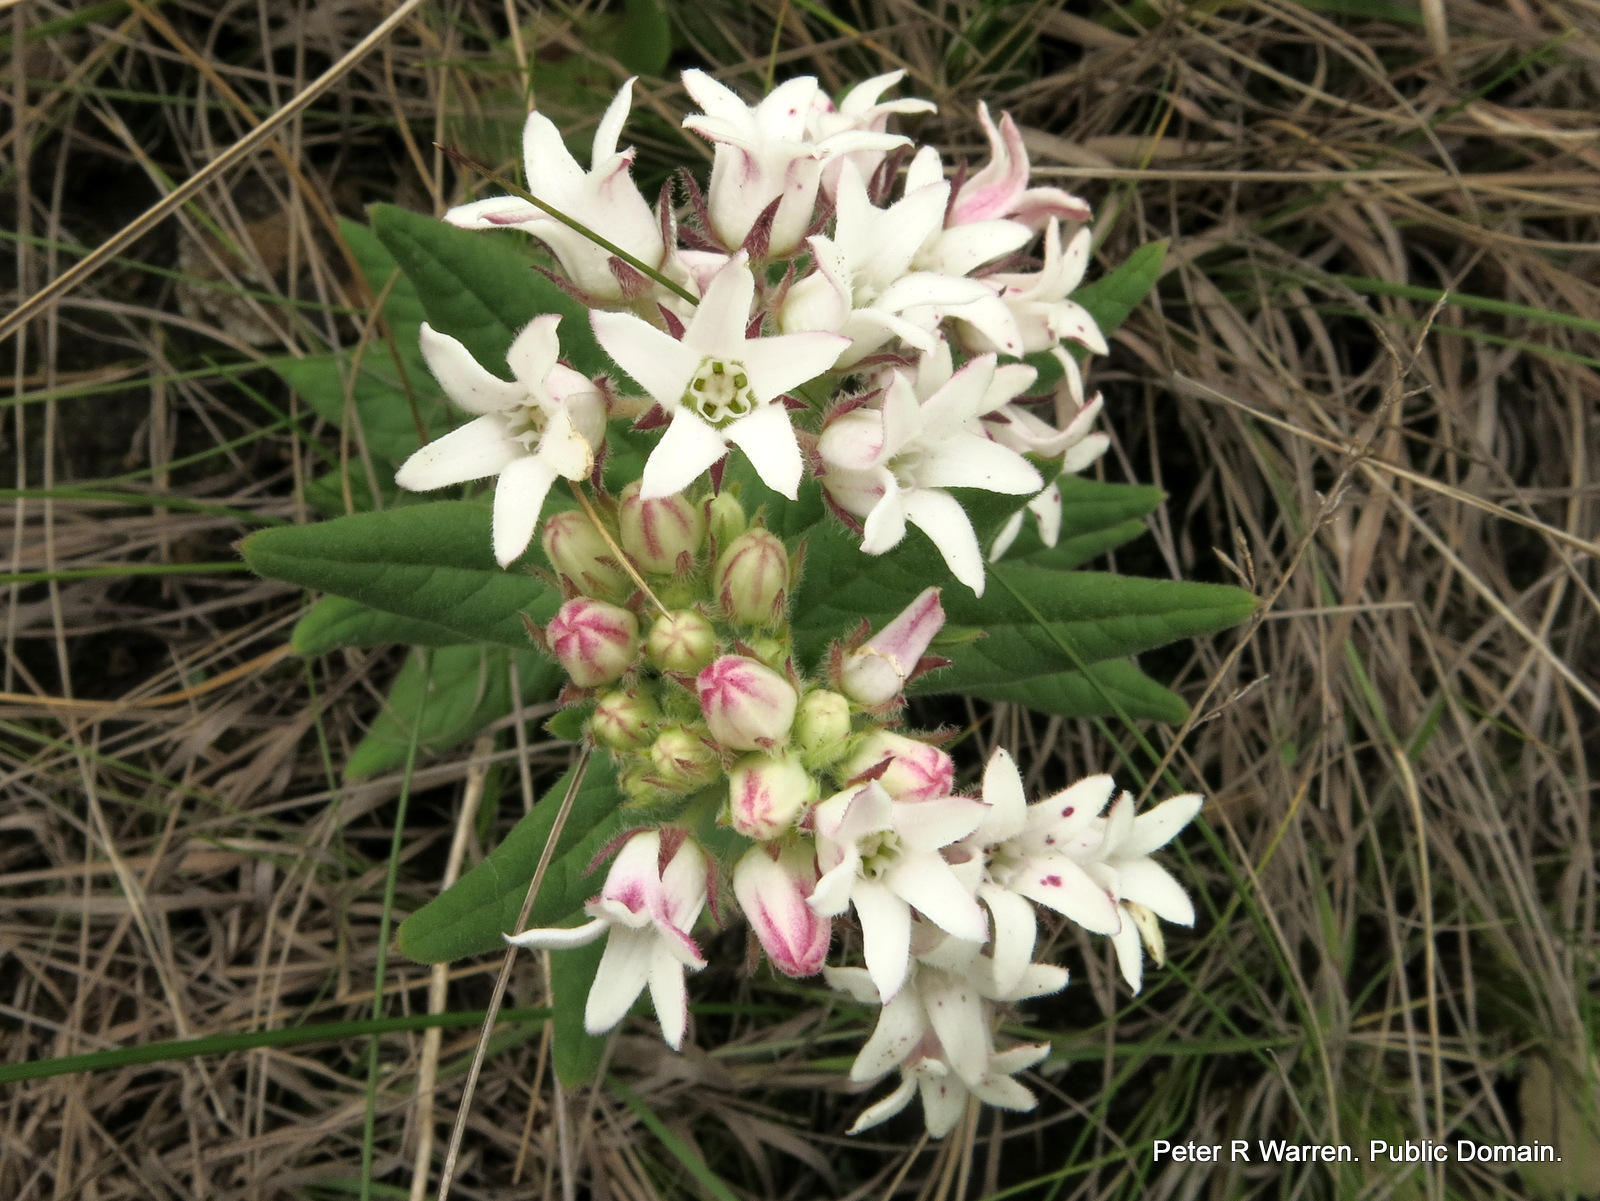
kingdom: Plantae
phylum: Tracheophyta
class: Magnoliopsida
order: Gentianales
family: Apocynaceae
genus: Schizoglossum
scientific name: Schizoglossum elingue
